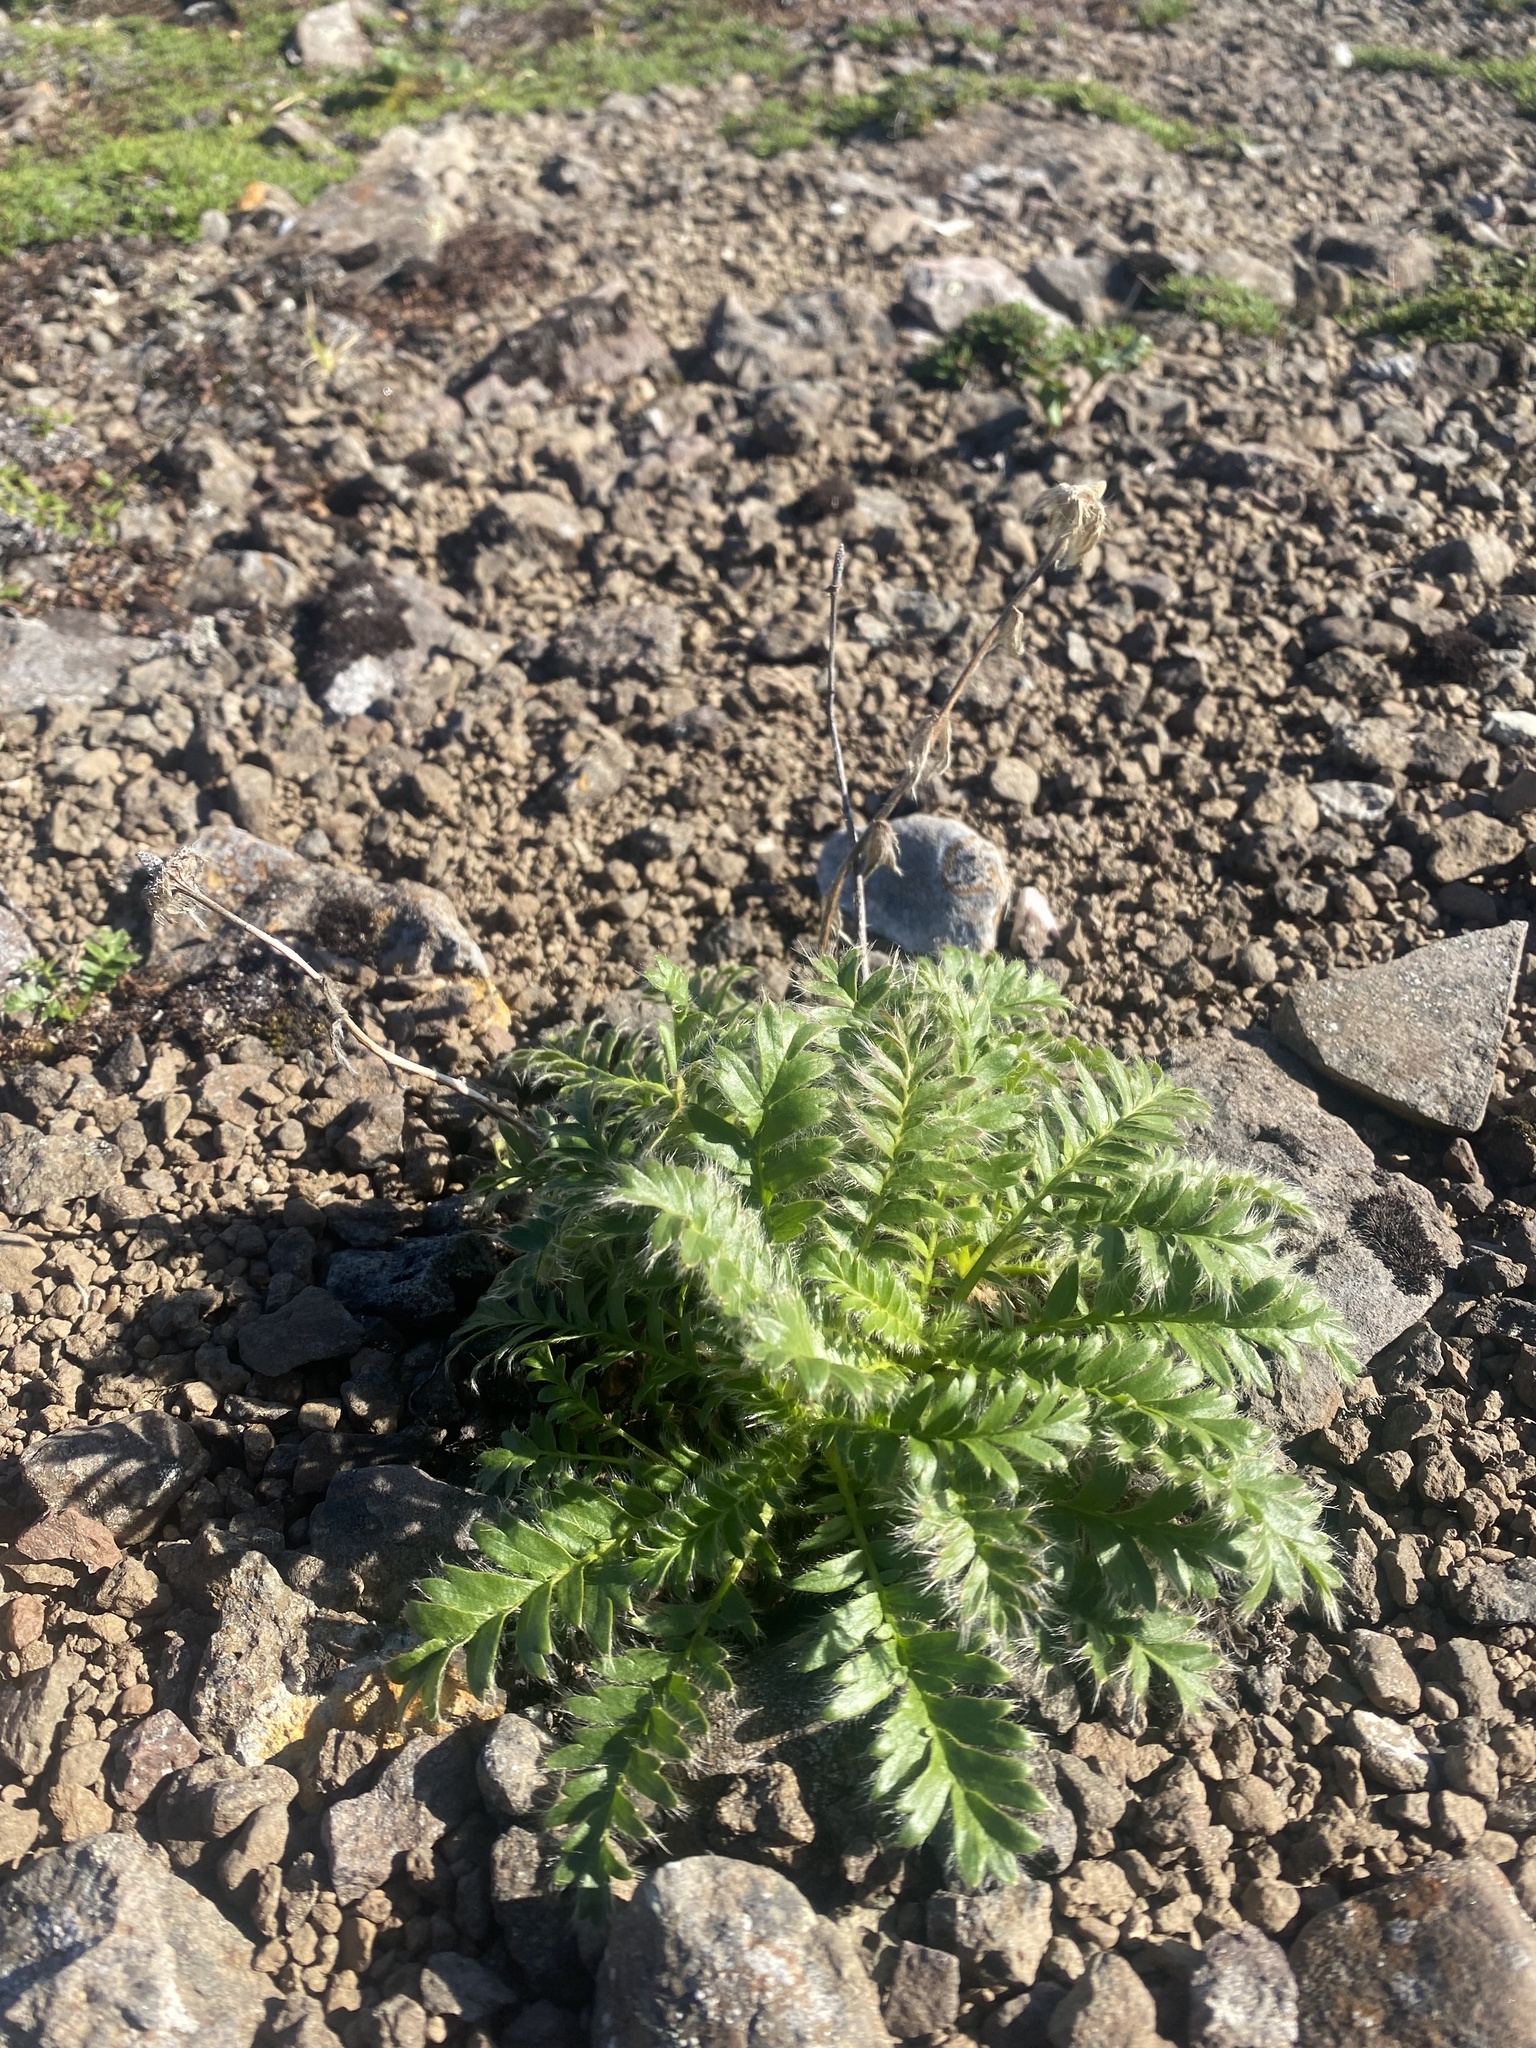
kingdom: Plantae
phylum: Tracheophyta
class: Magnoliopsida
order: Rosales
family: Rosaceae
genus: Geum
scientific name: Geum glaciale
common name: Glacier avens
